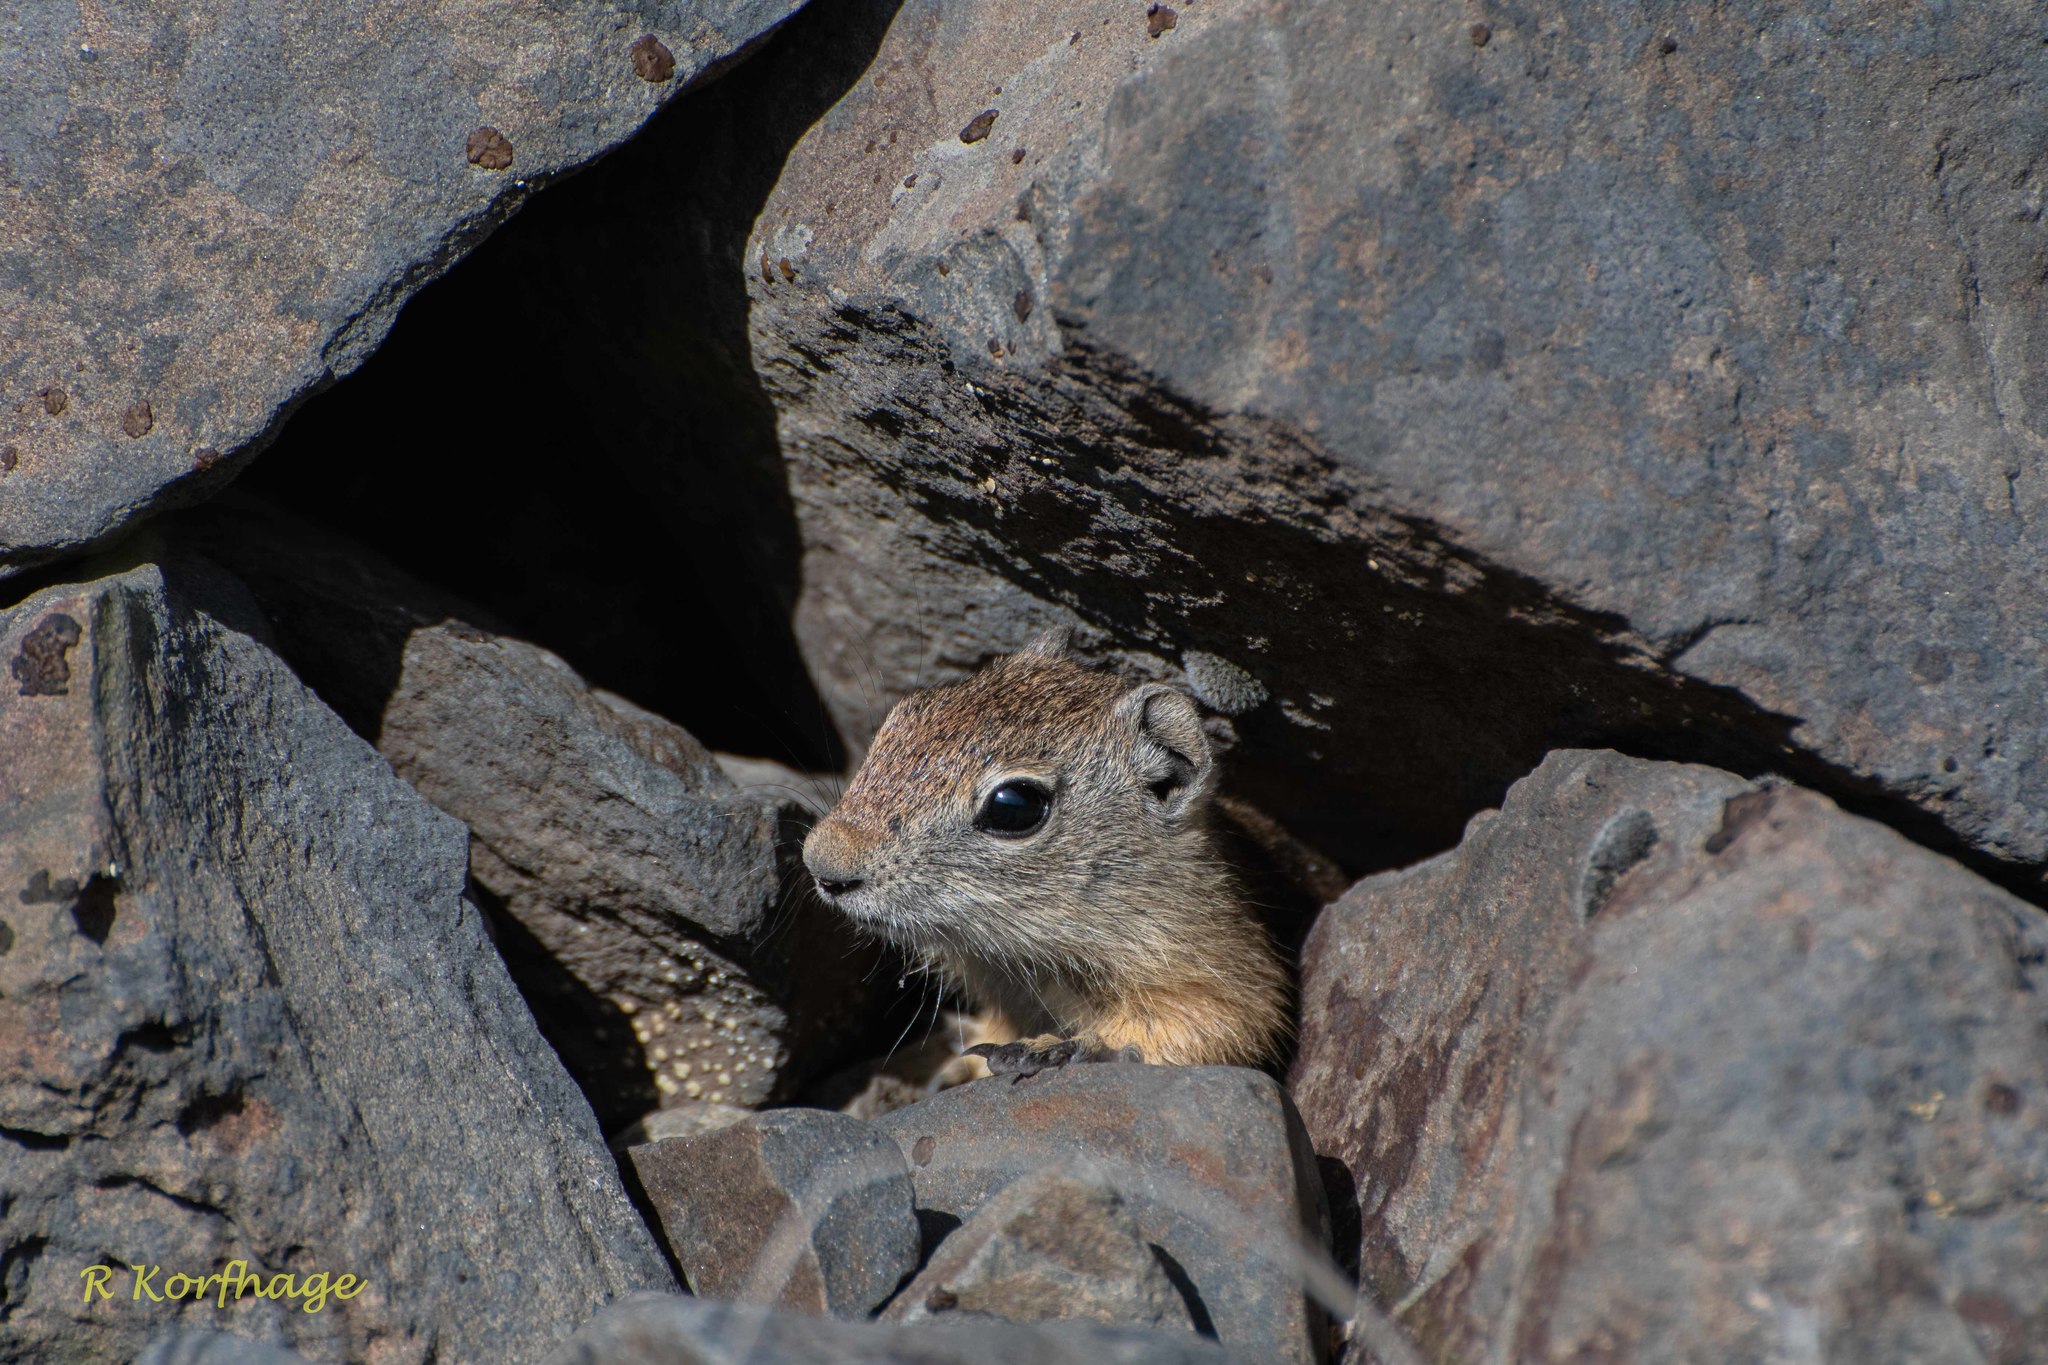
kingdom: Animalia
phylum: Chordata
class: Mammalia
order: Rodentia
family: Sciuridae
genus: Urocitellus
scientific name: Urocitellus beldingi
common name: Belding's ground squirrel
